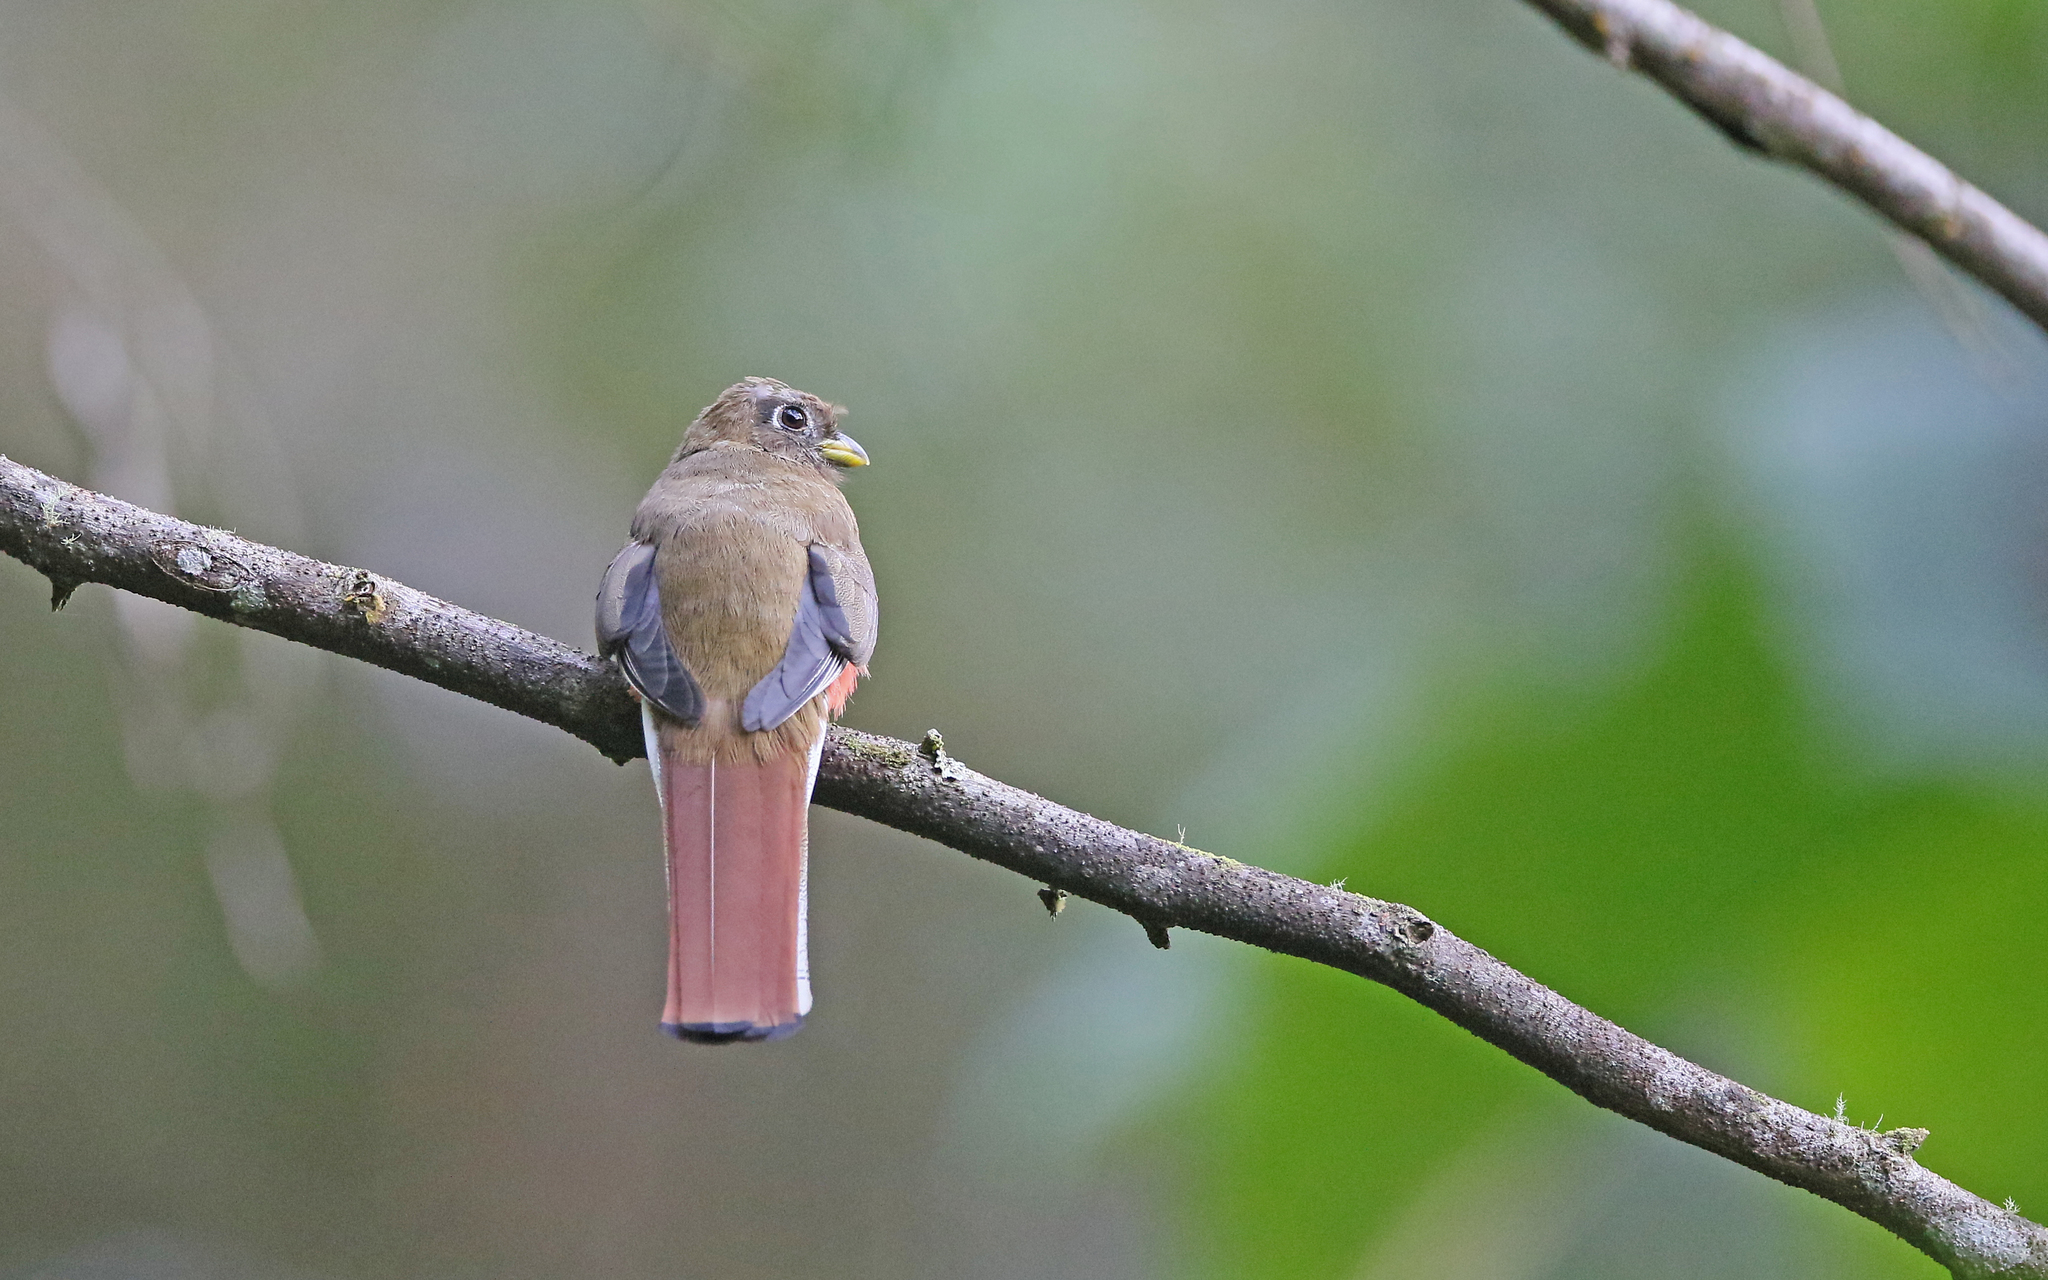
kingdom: Animalia
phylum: Chordata
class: Aves
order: Trogoniformes
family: Trogonidae
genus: Trogon
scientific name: Trogon collaris
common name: Collared trogon
